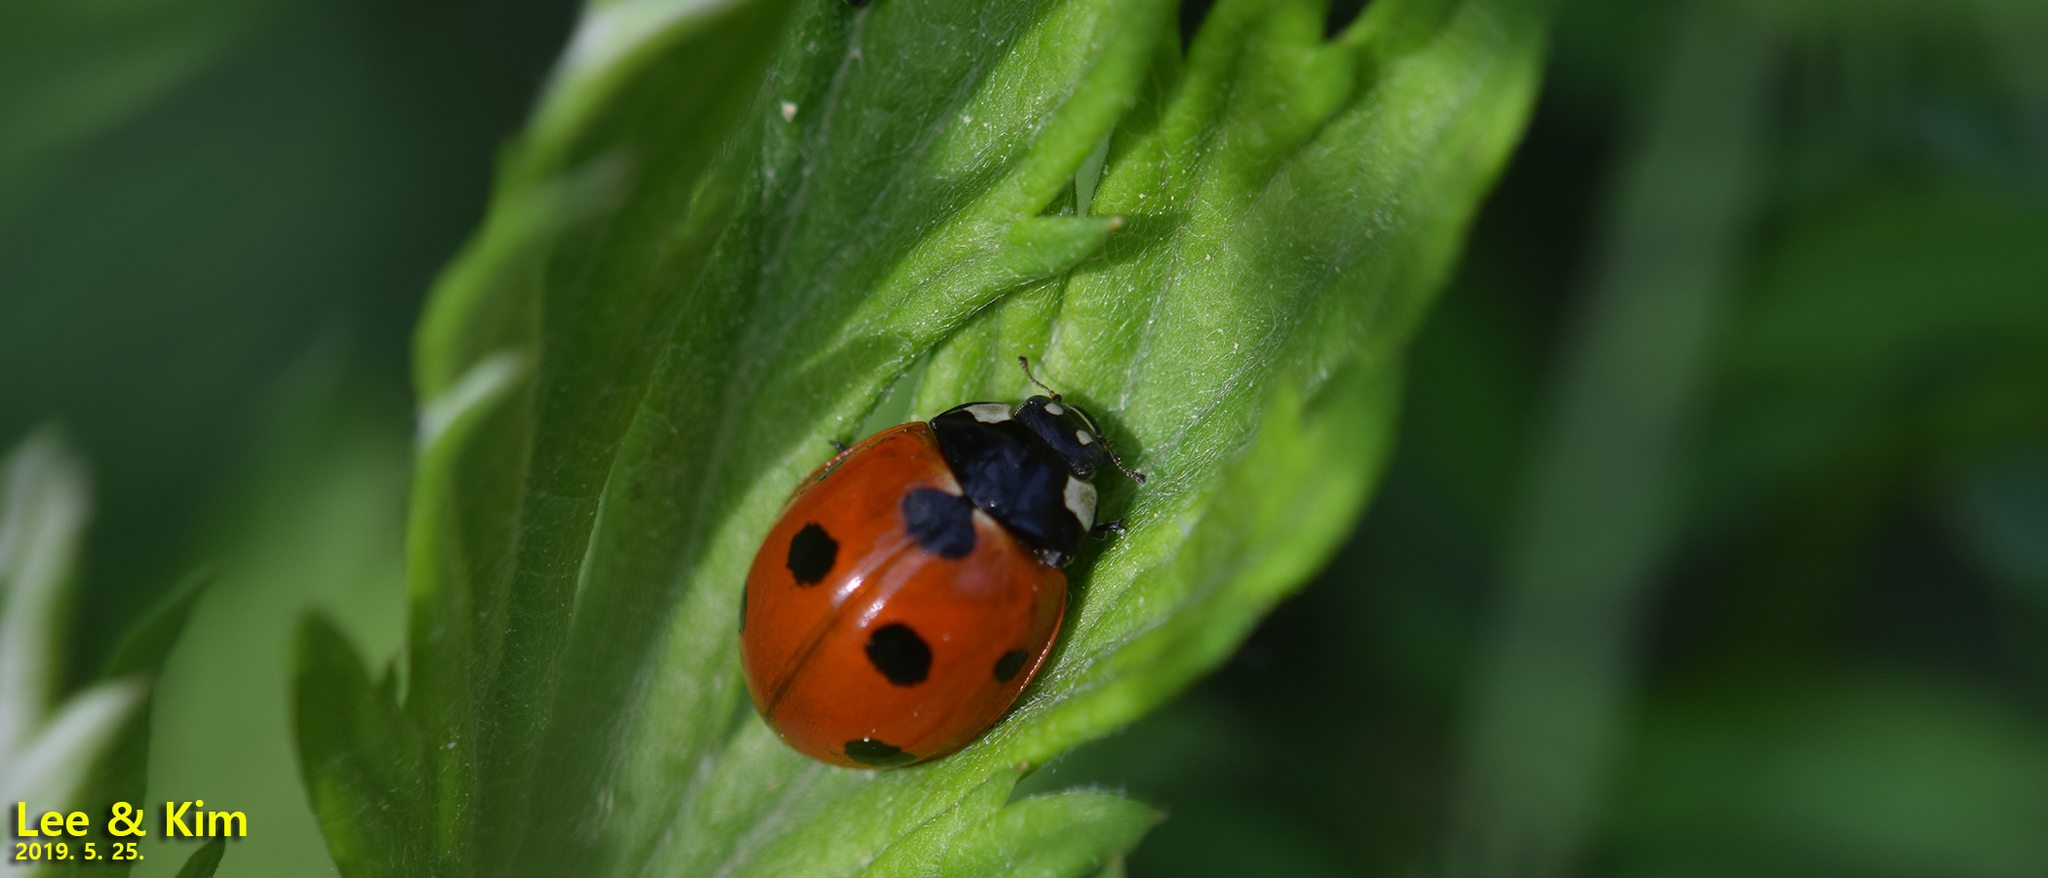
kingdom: Animalia
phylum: Arthropoda
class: Insecta
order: Coleoptera
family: Coccinellidae
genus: Coccinella
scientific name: Coccinella septempunctata
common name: Sevenspotted lady beetle
